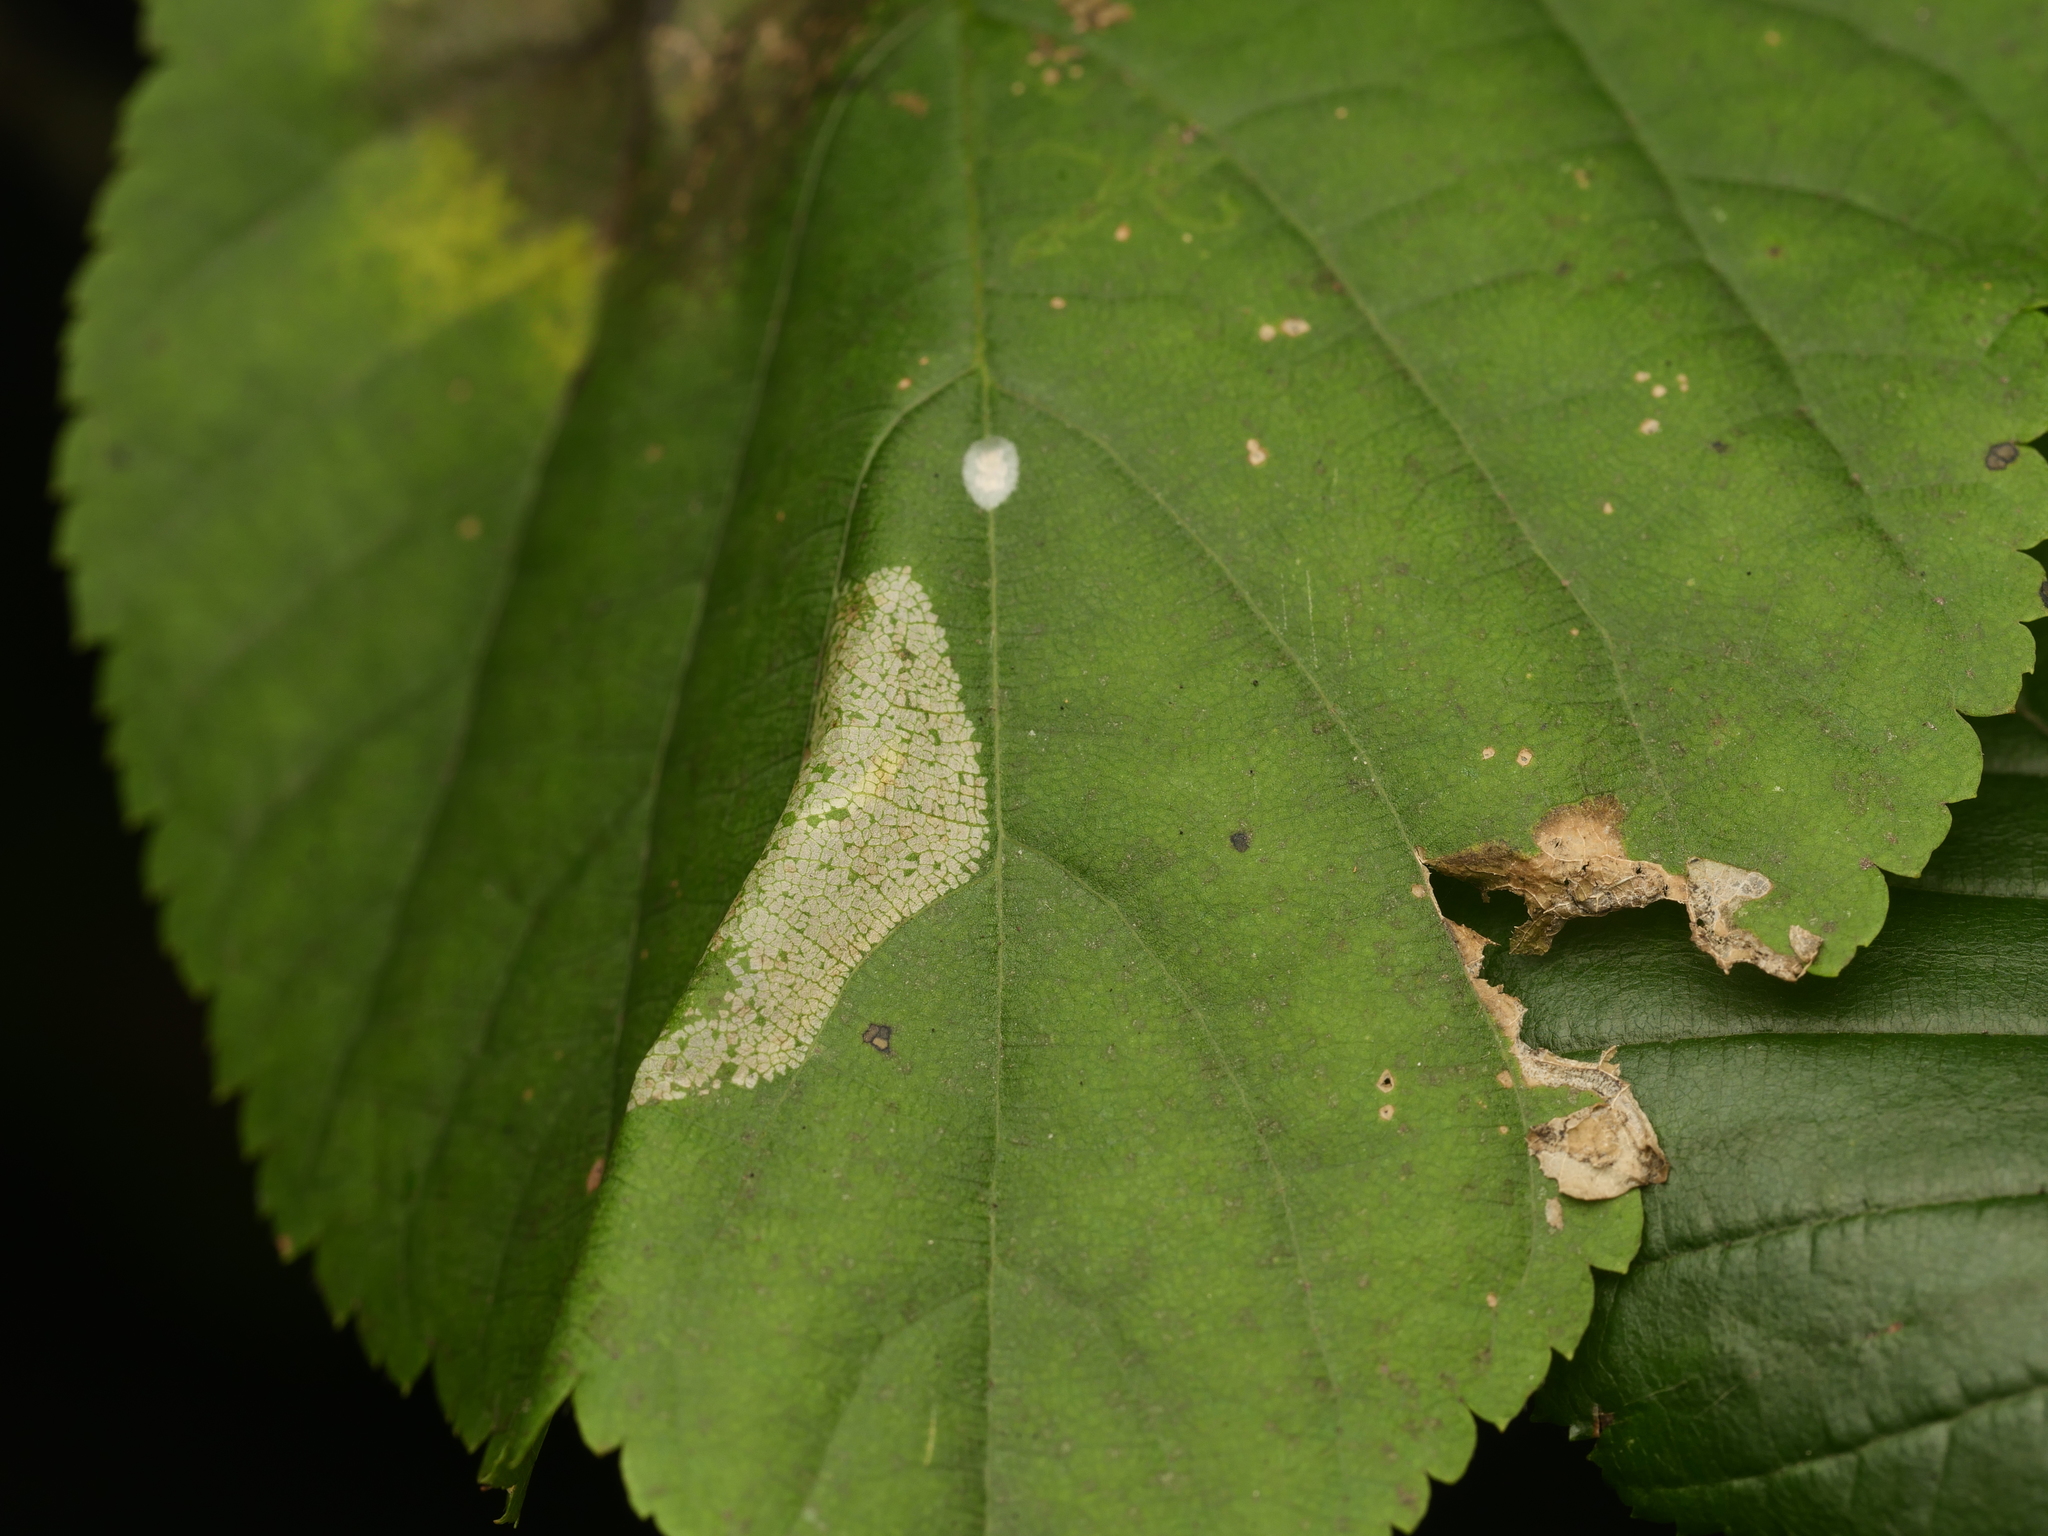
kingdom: Animalia
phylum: Arthropoda
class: Insecta
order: Lepidoptera
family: Gracillariidae
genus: Phyllonorycter
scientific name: Phyllonorycter issikii
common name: Linden midget
